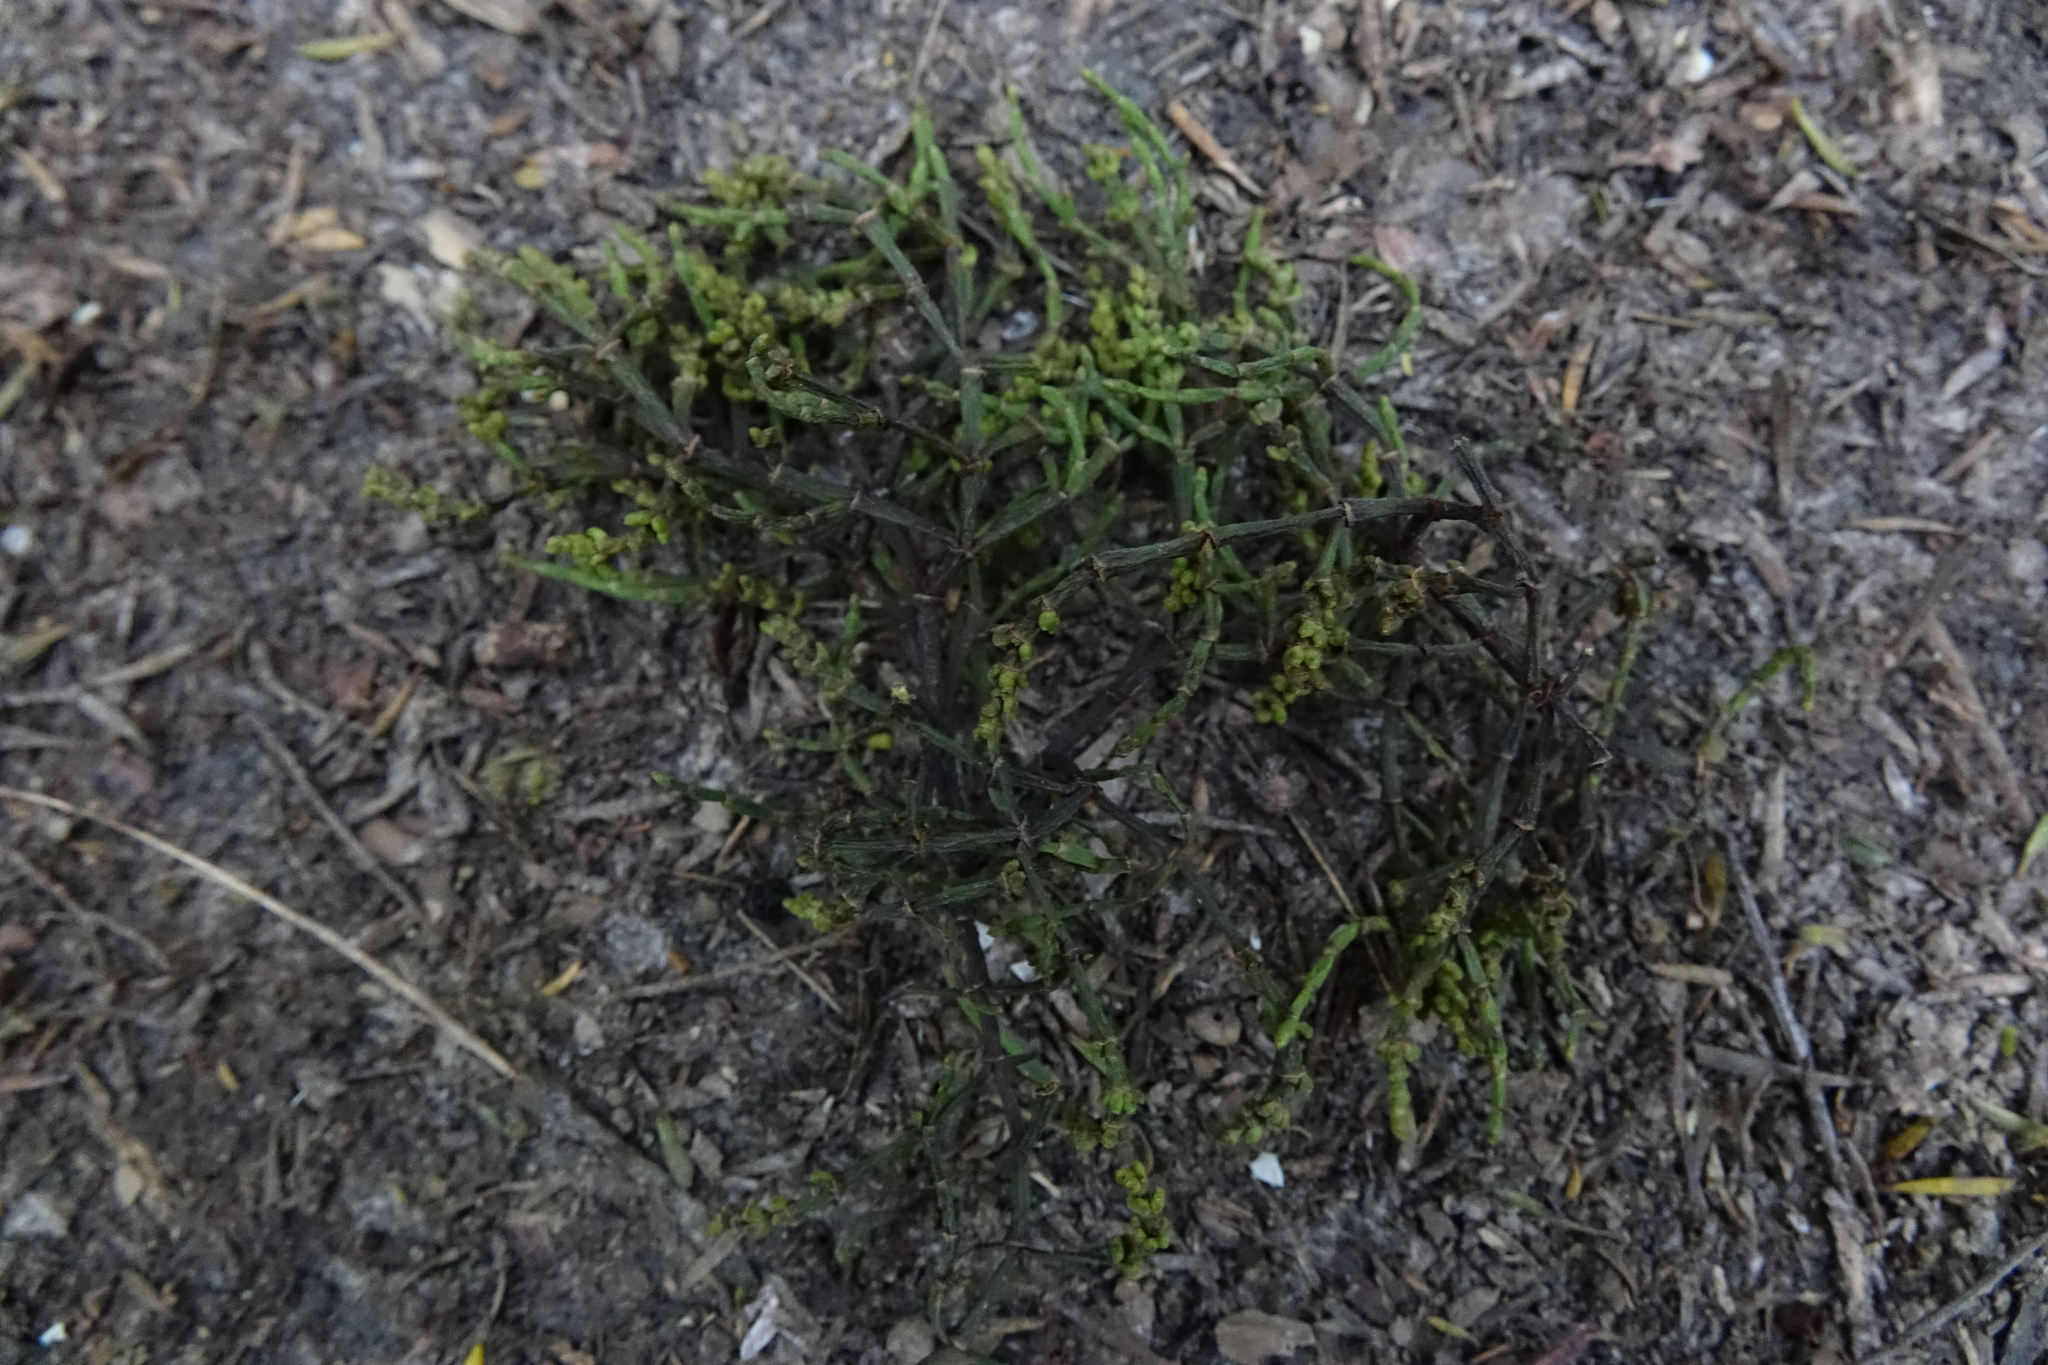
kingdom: Plantae
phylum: Tracheophyta
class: Magnoliopsida
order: Santalales
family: Viscaceae
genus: Korthalsella
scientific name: Korthalsella salicornioides
